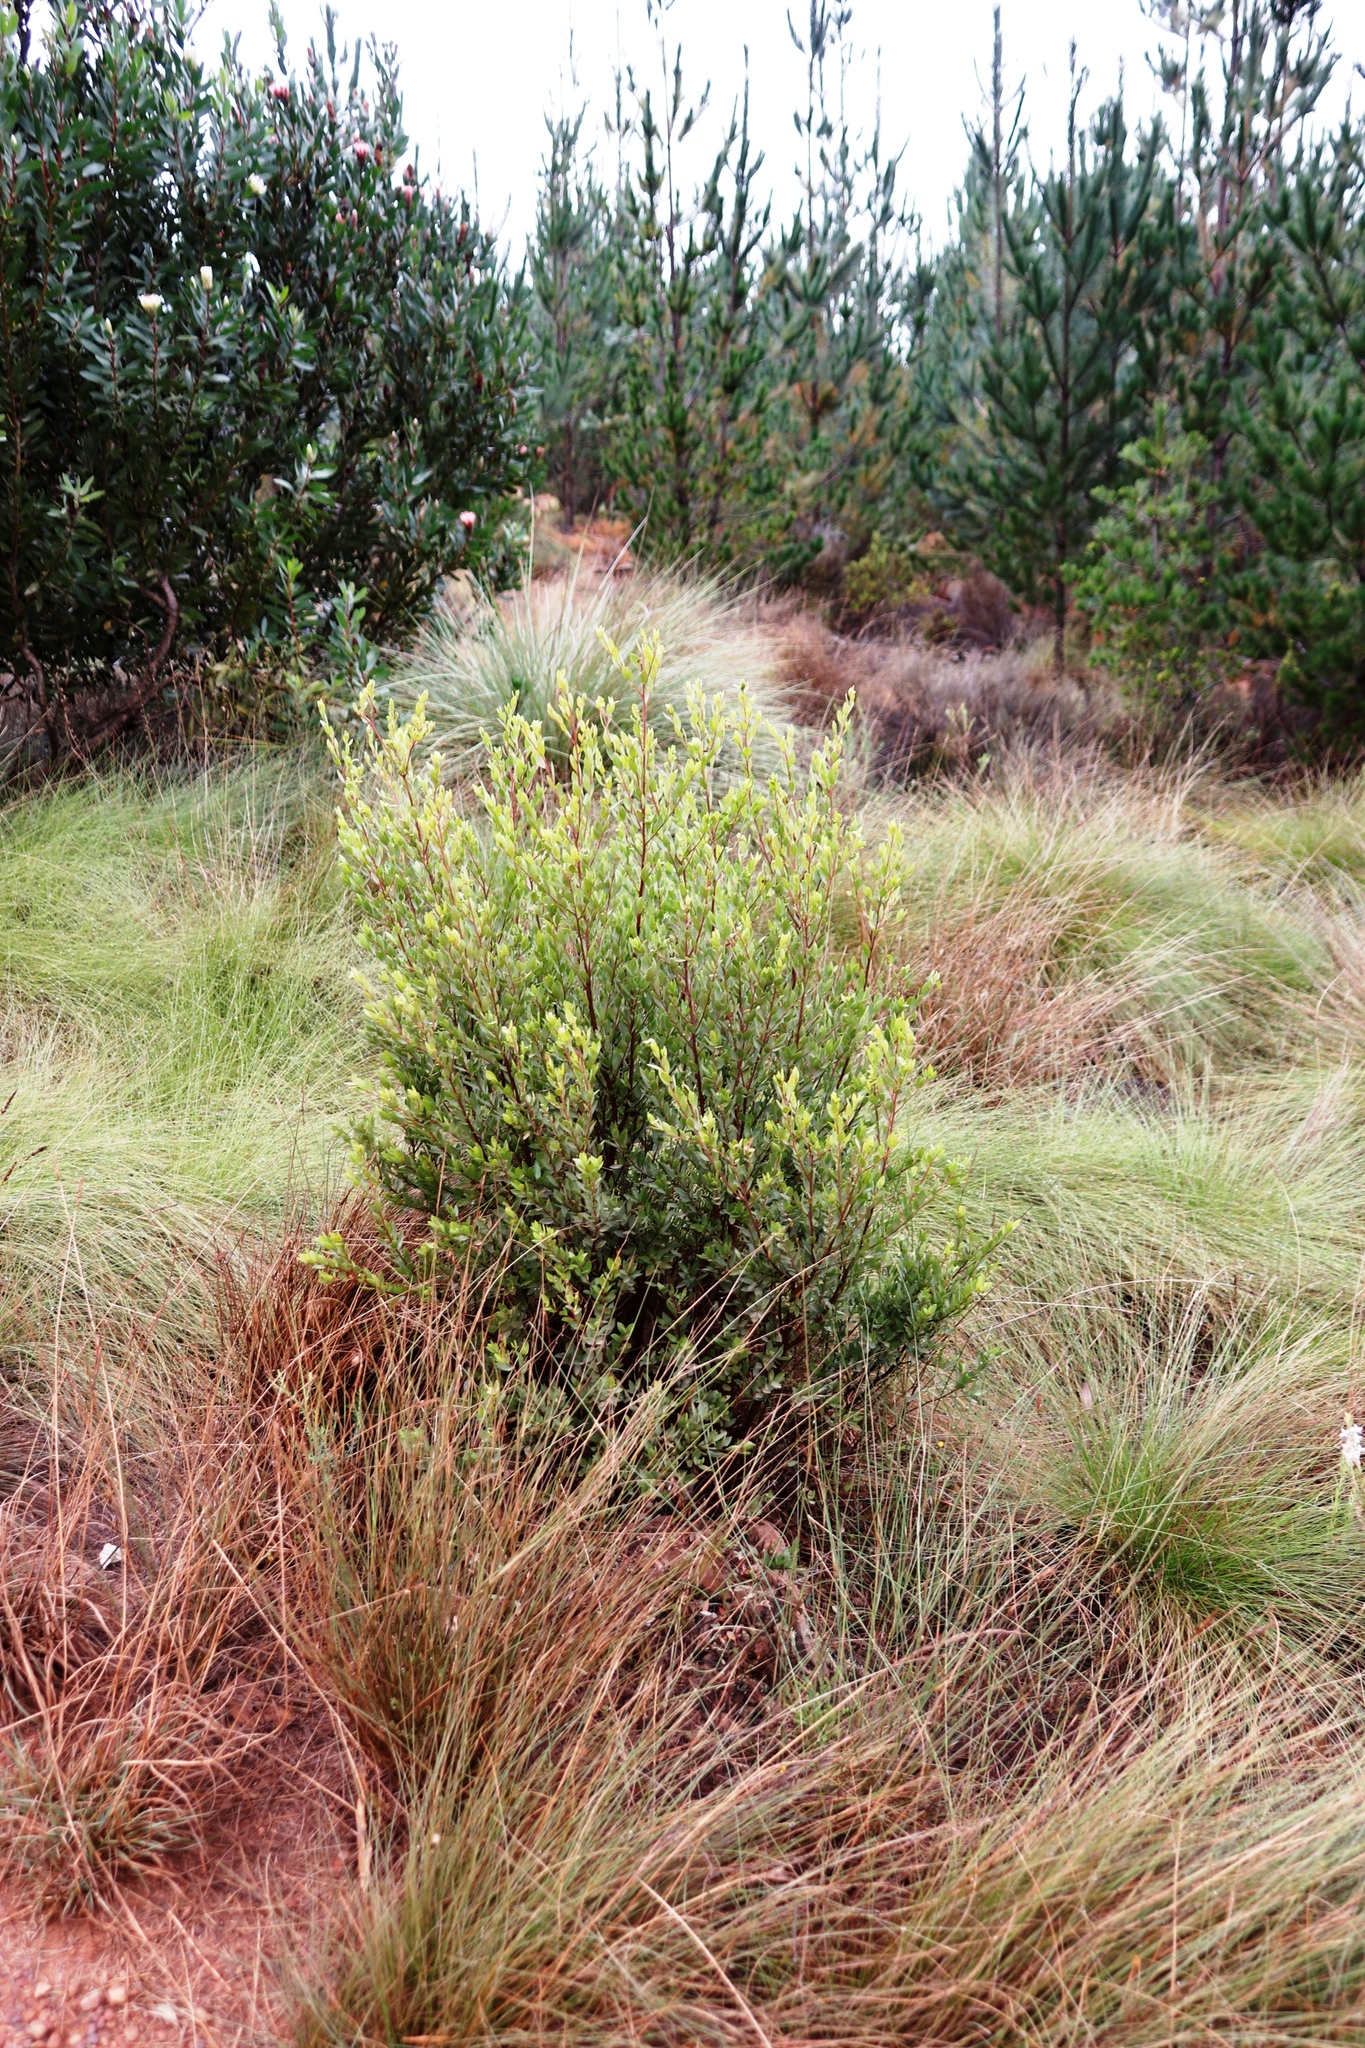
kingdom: Plantae
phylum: Tracheophyta
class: Magnoliopsida
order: Ericales
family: Ebenaceae
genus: Diospyros
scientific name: Diospyros glabra
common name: Fynbos star apple
